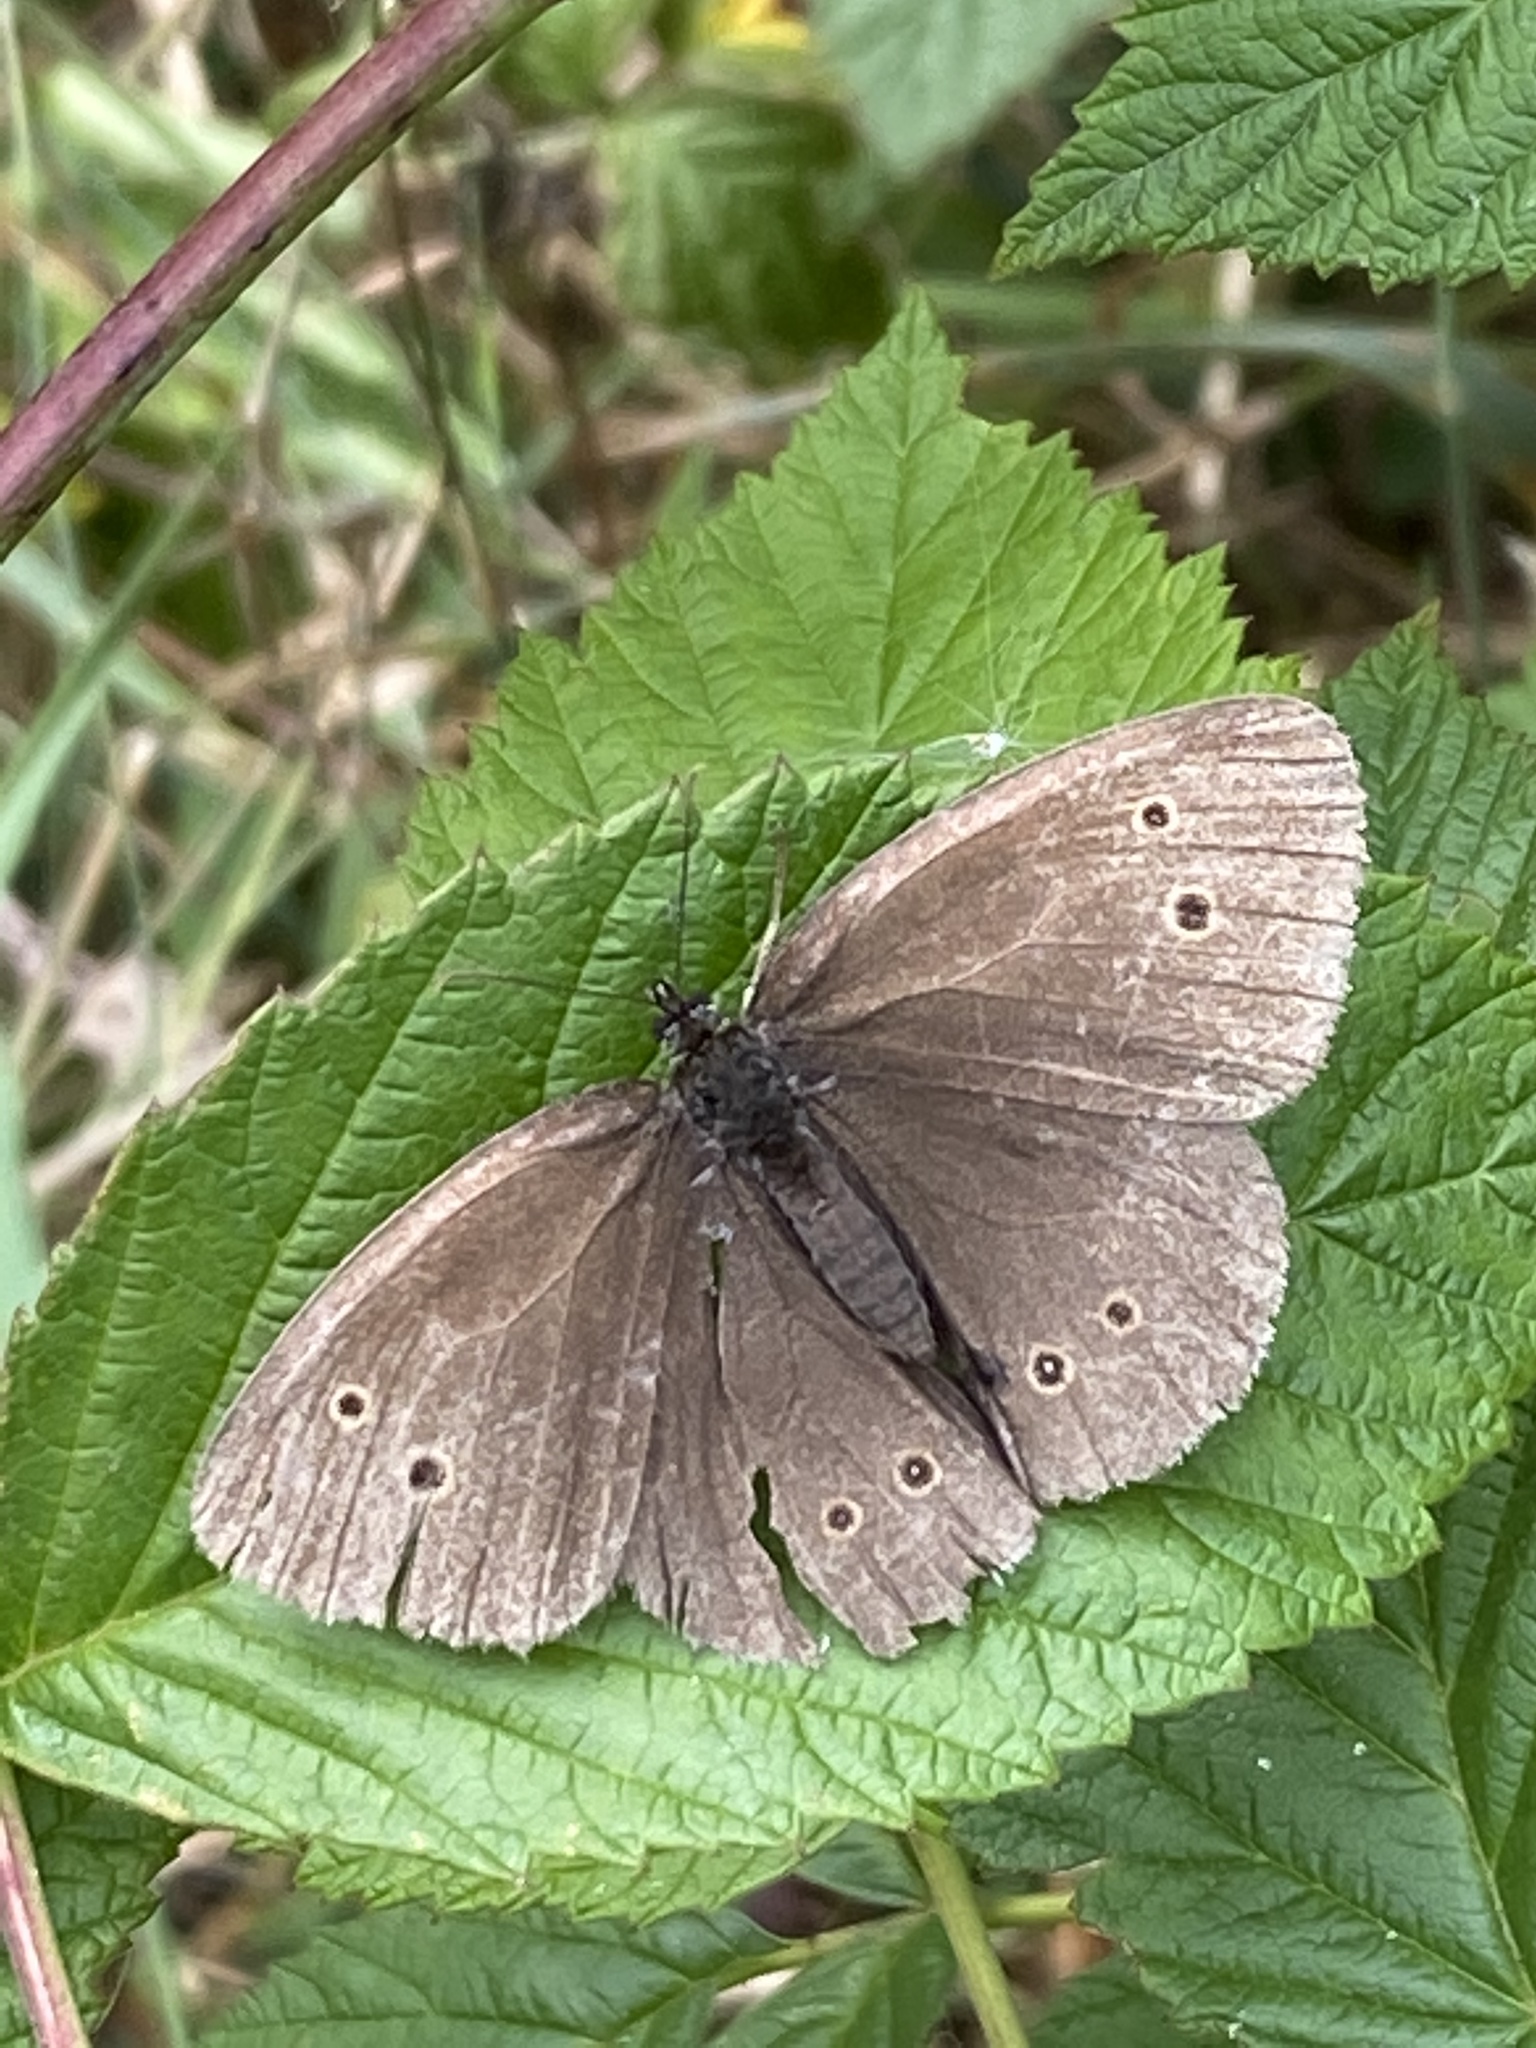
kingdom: Animalia
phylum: Arthropoda
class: Insecta
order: Lepidoptera
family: Nymphalidae
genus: Aphantopus
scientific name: Aphantopus hyperantus
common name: Ringlet
